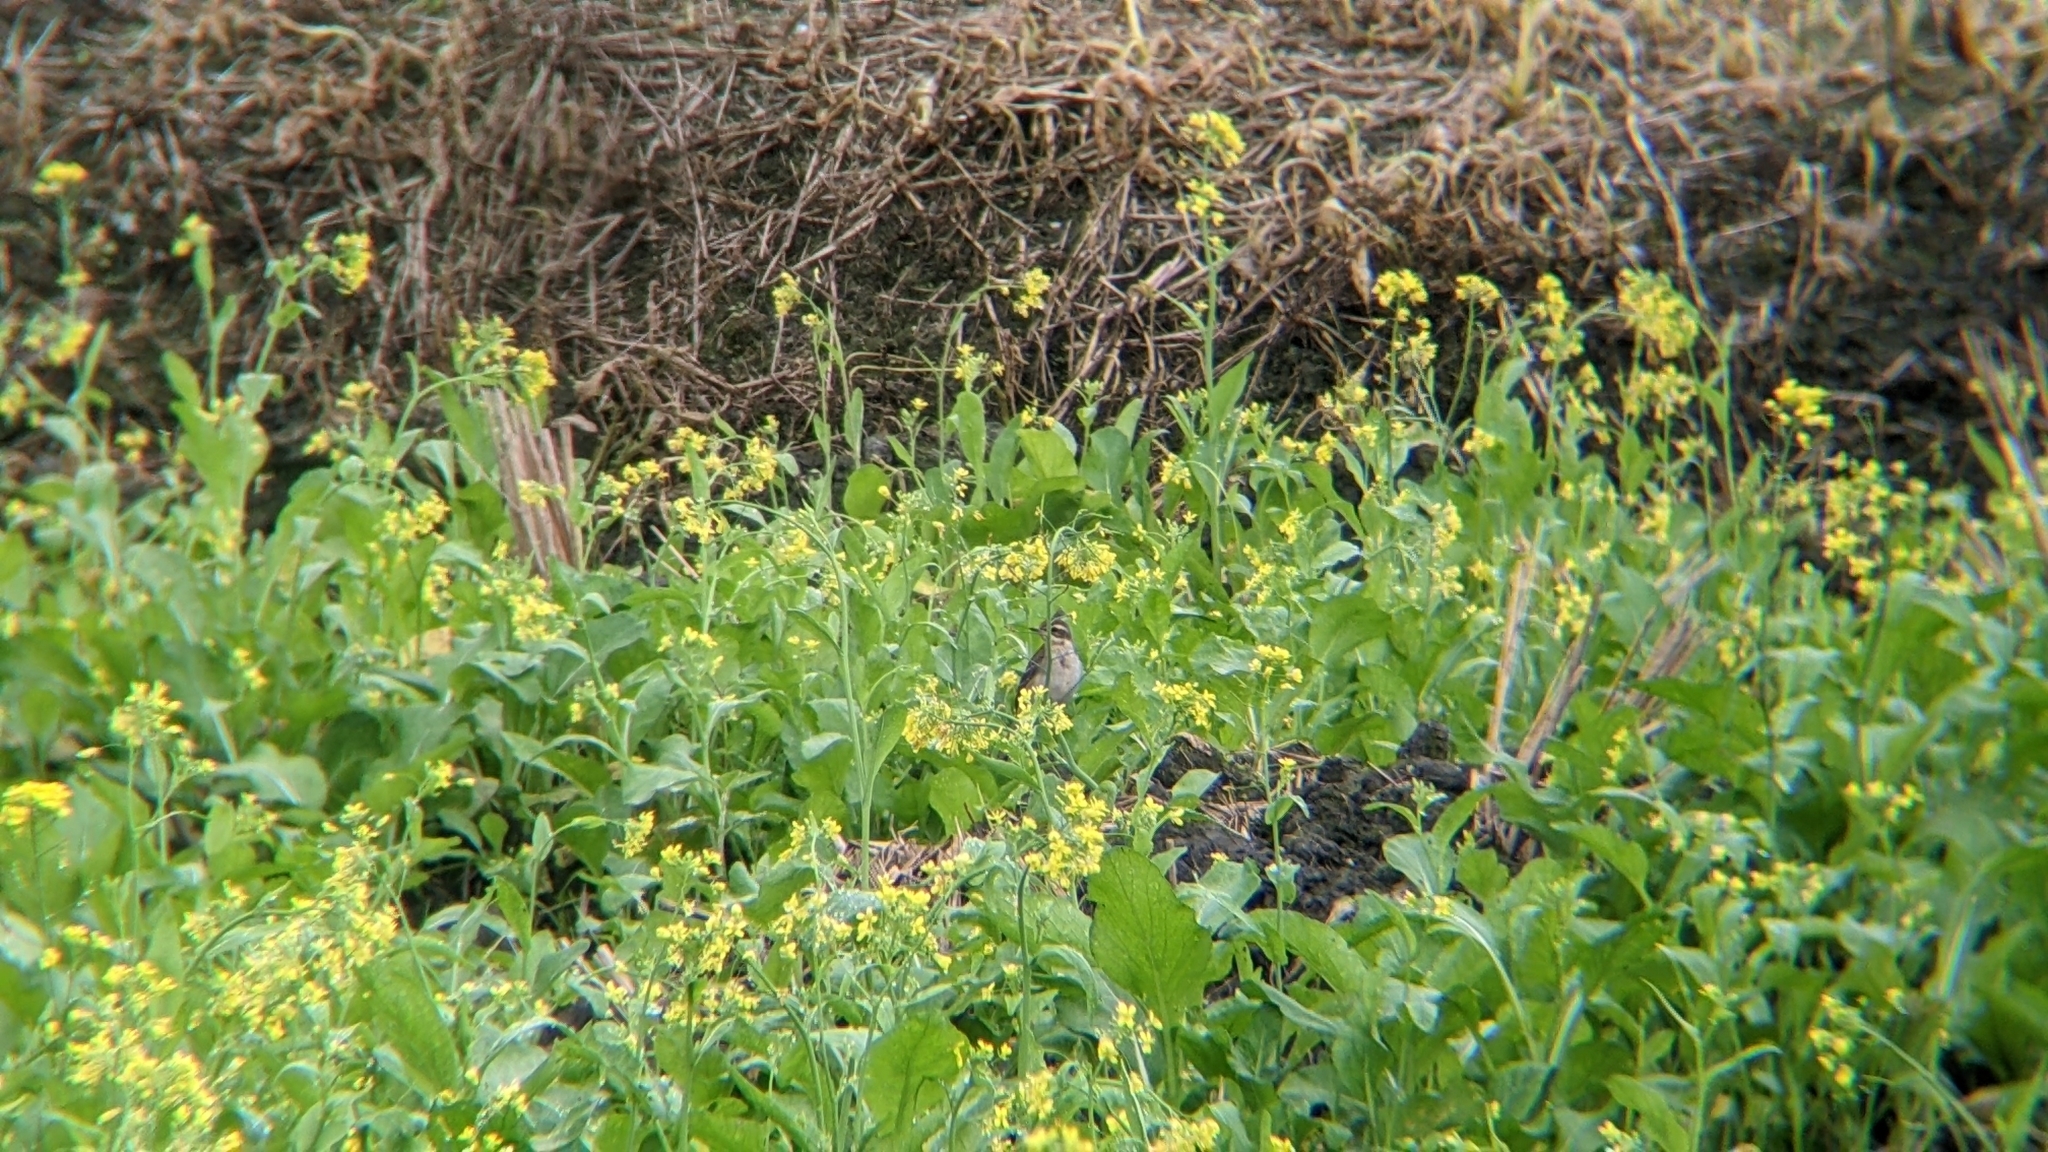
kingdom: Animalia
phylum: Chordata
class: Aves
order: Passeriformes
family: Motacillidae
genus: Motacilla
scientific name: Motacilla tschutschensis
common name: Eastern yellow wagtail
